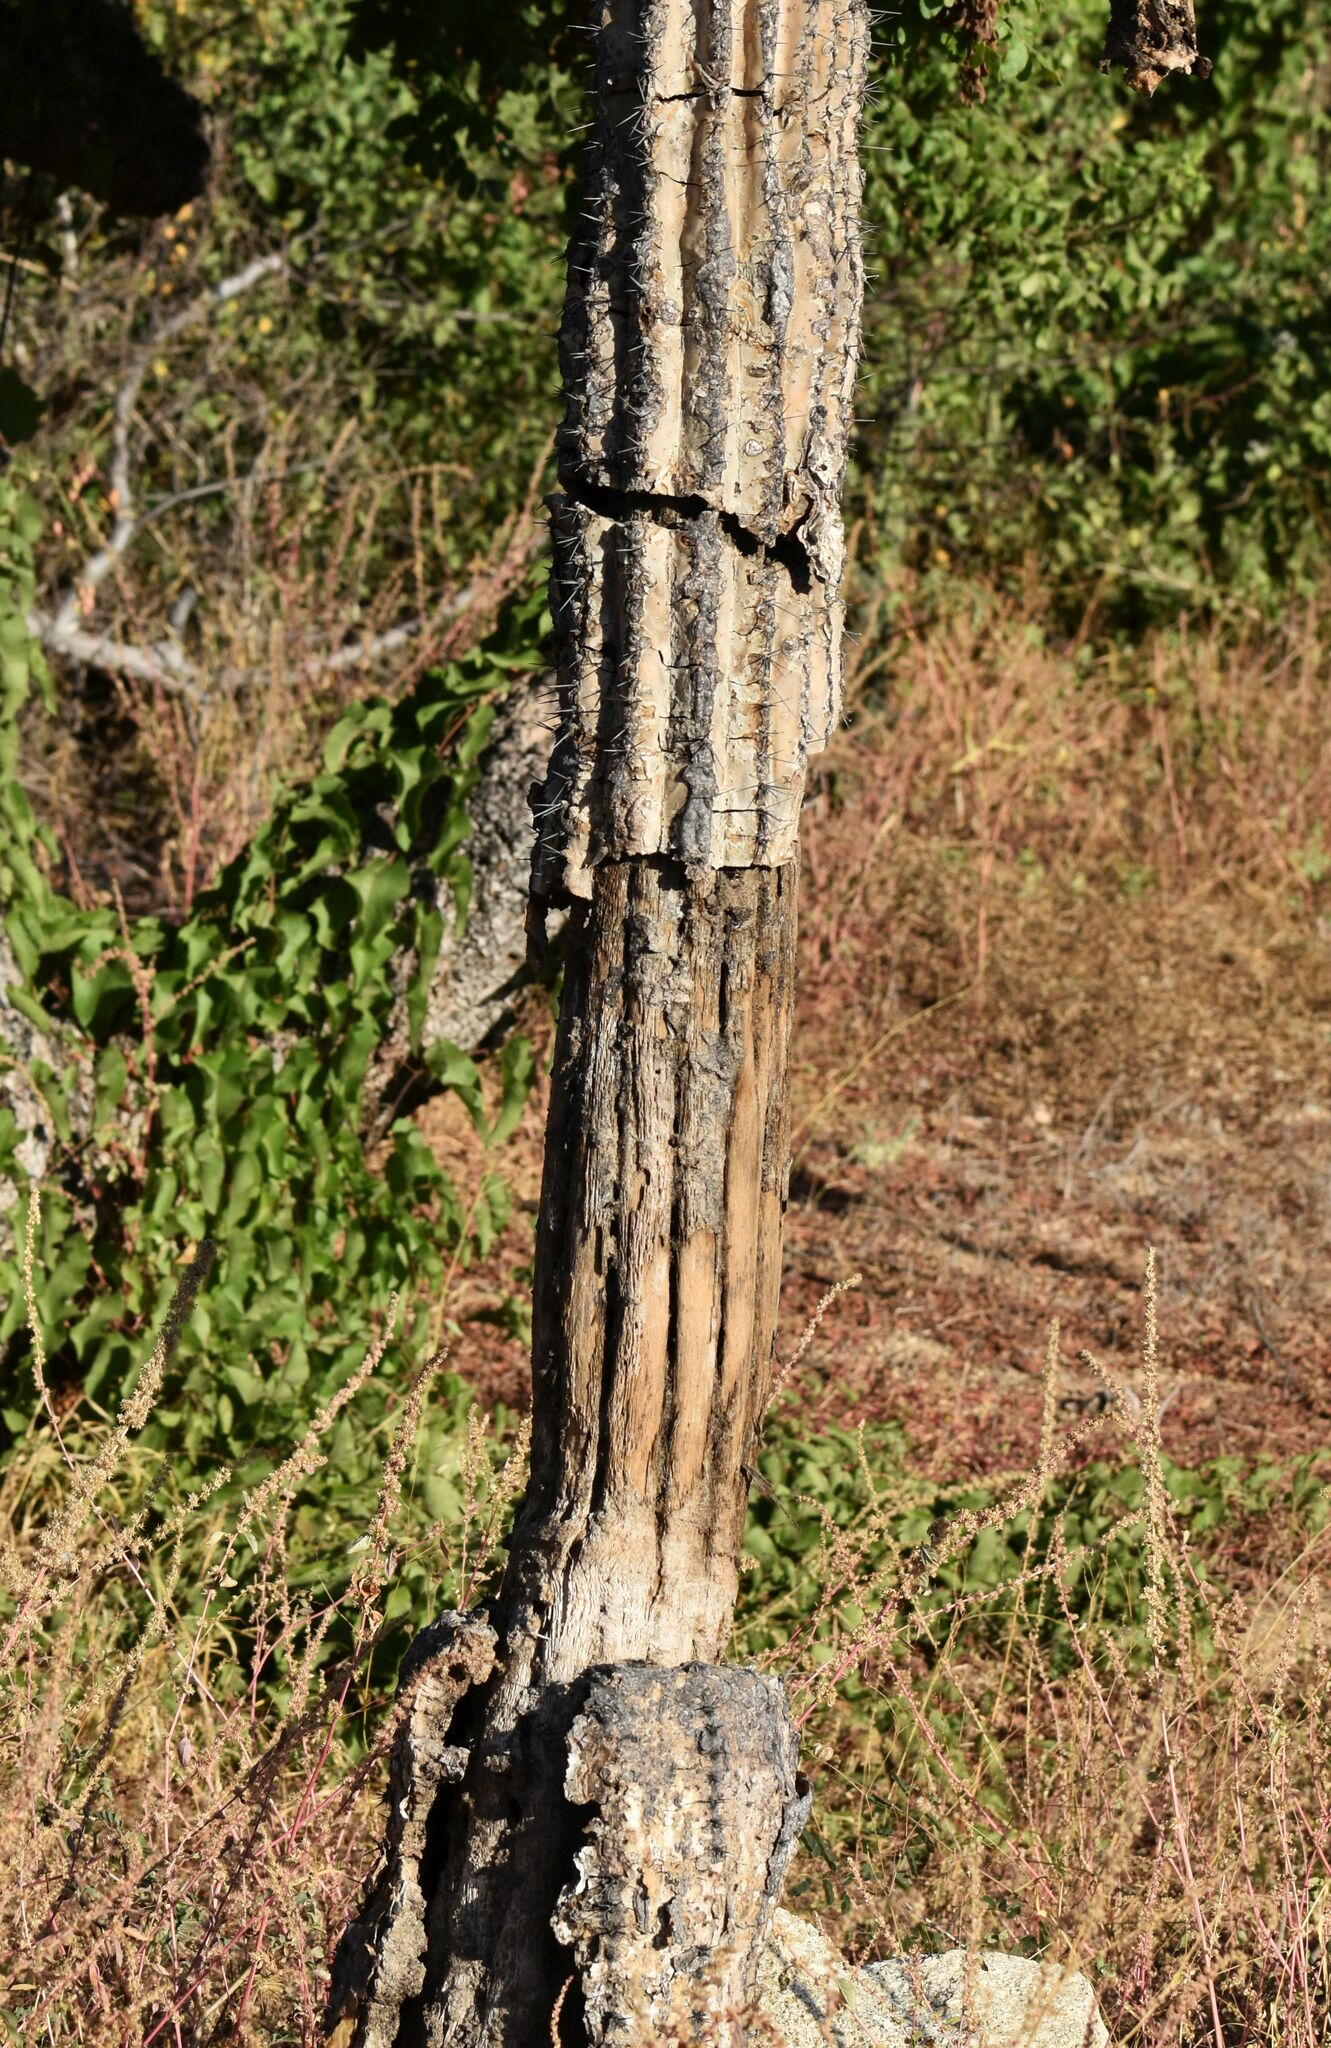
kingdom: Plantae
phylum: Tracheophyta
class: Magnoliopsida
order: Caryophyllales
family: Cactaceae
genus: Pachycereus
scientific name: Pachycereus pringlei
